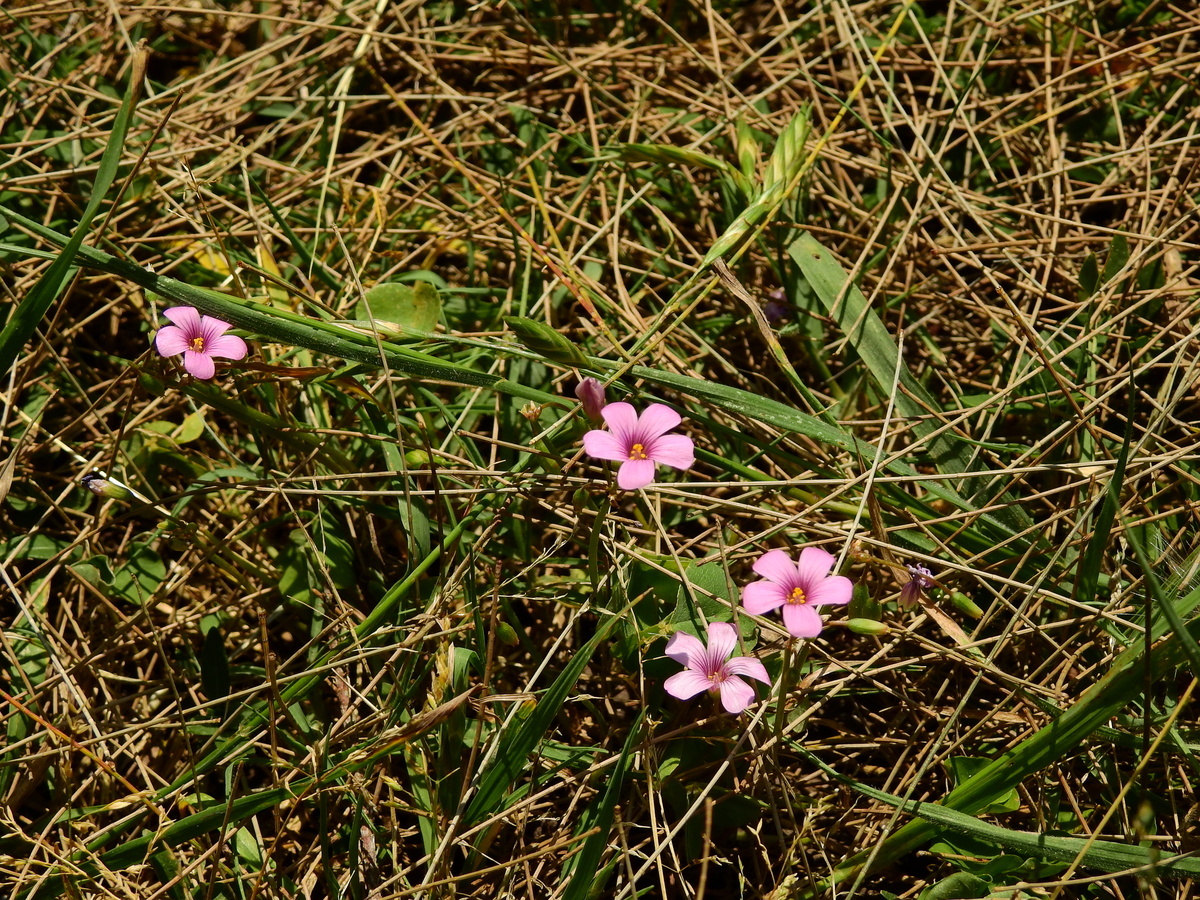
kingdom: Plantae
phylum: Tracheophyta
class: Magnoliopsida
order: Oxalidales
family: Oxalidaceae
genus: Oxalis
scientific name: Oxalis articulata
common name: Pink-sorrel
